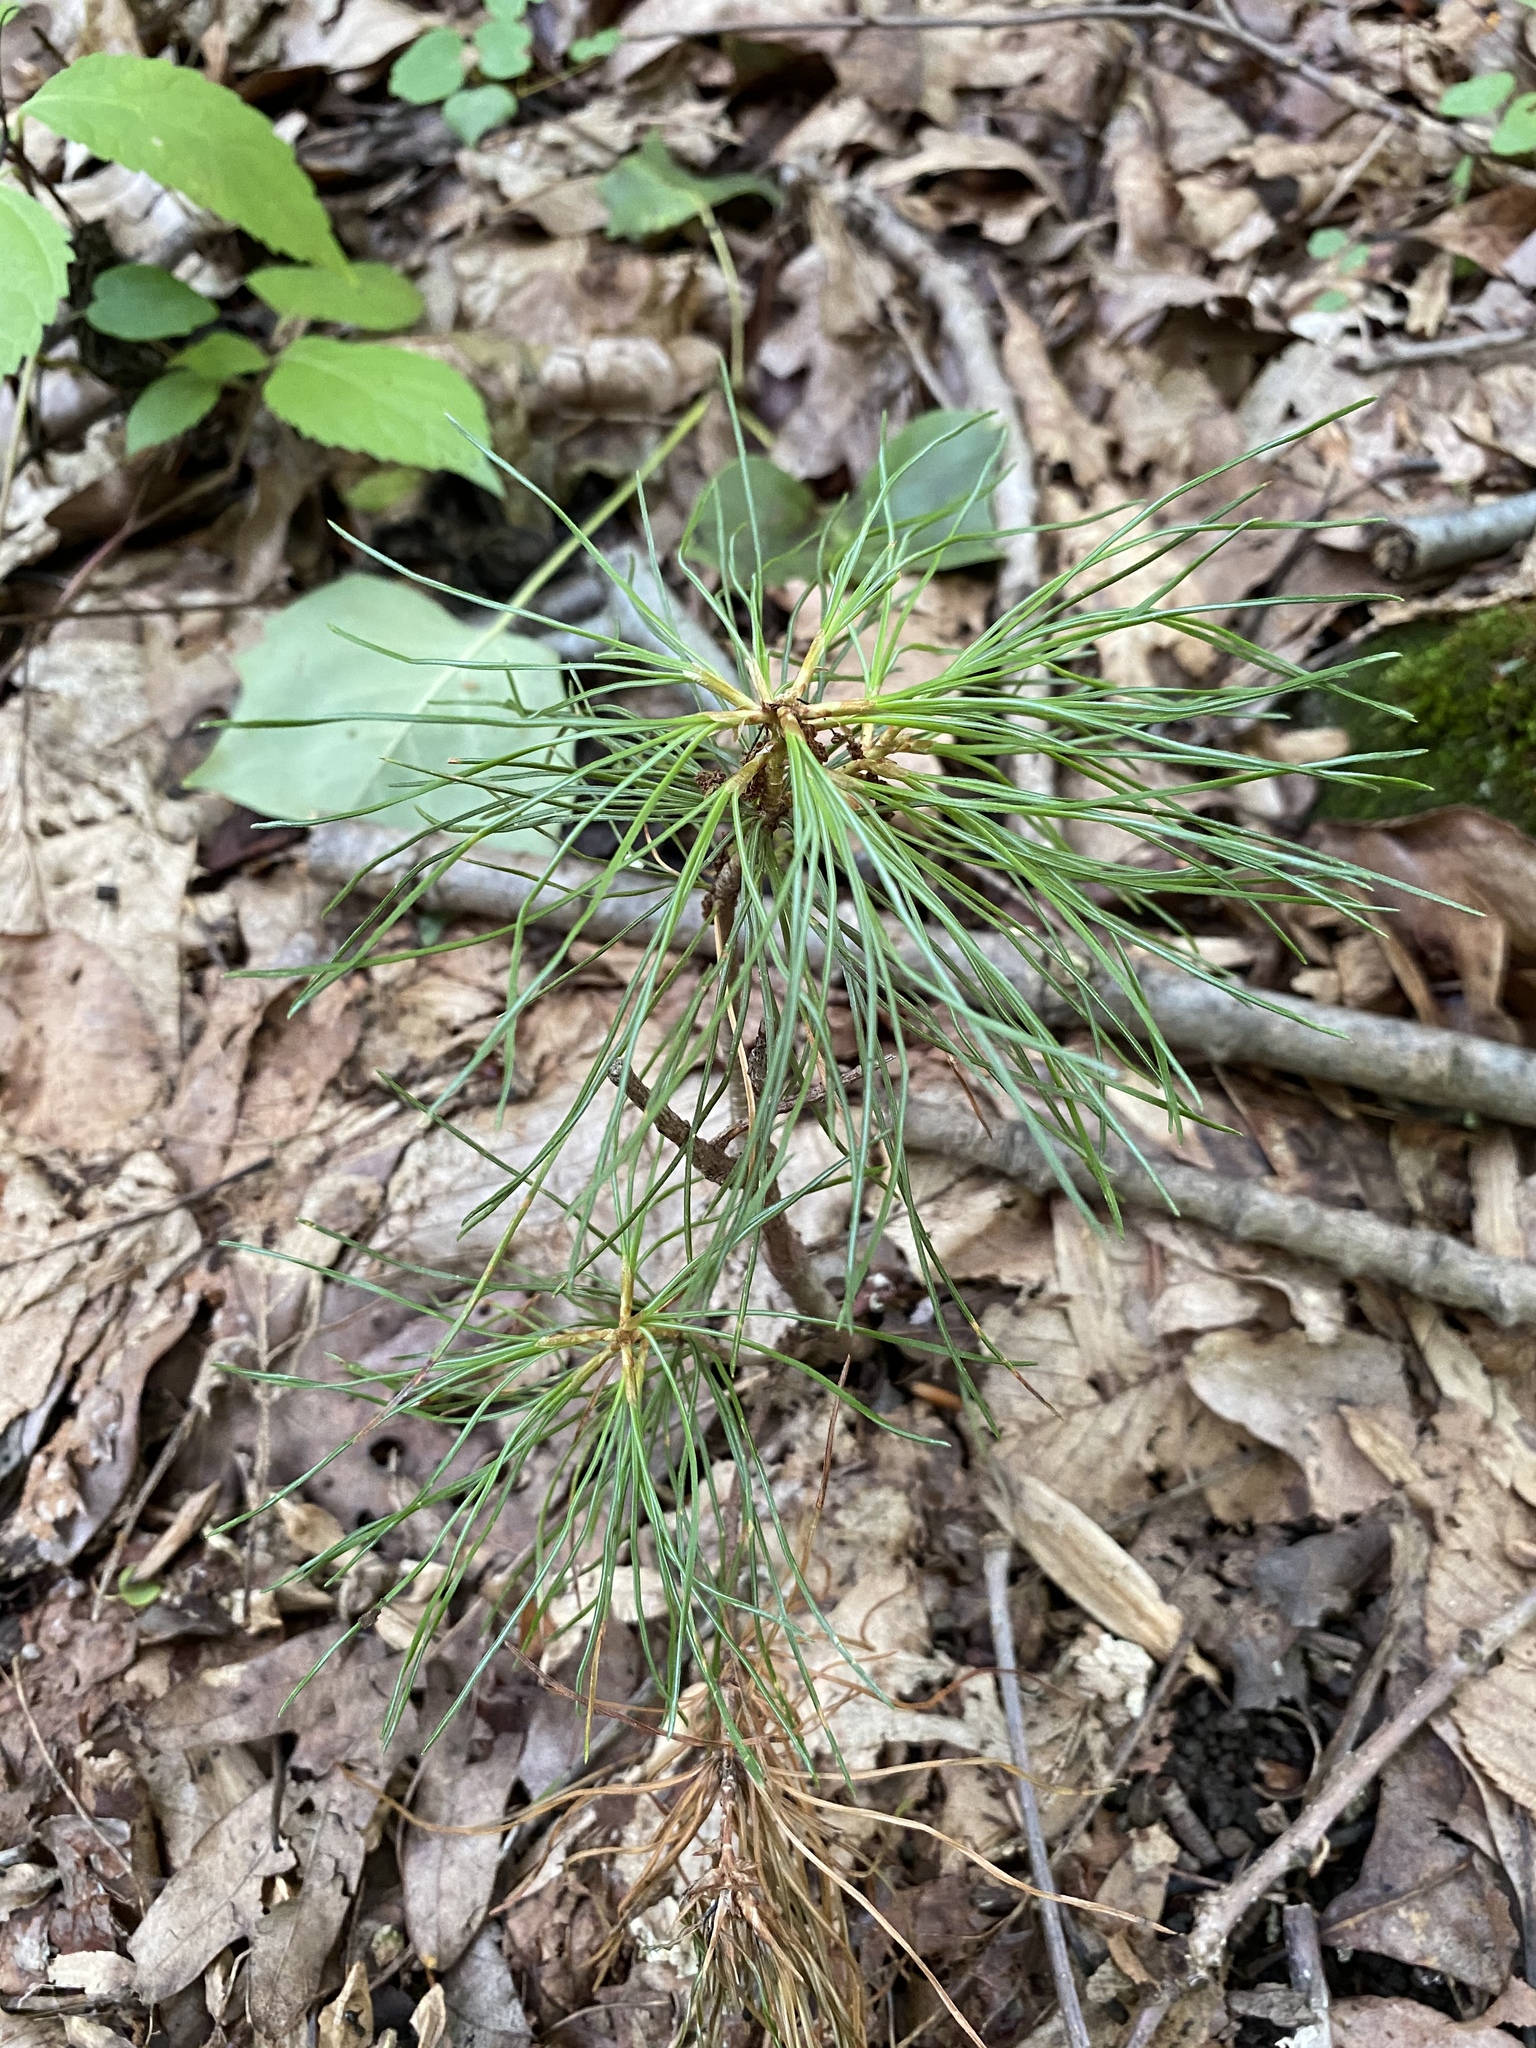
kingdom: Plantae
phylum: Tracheophyta
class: Pinopsida
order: Pinales
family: Pinaceae
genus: Pinus
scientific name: Pinus strobus
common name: Weymouth pine
